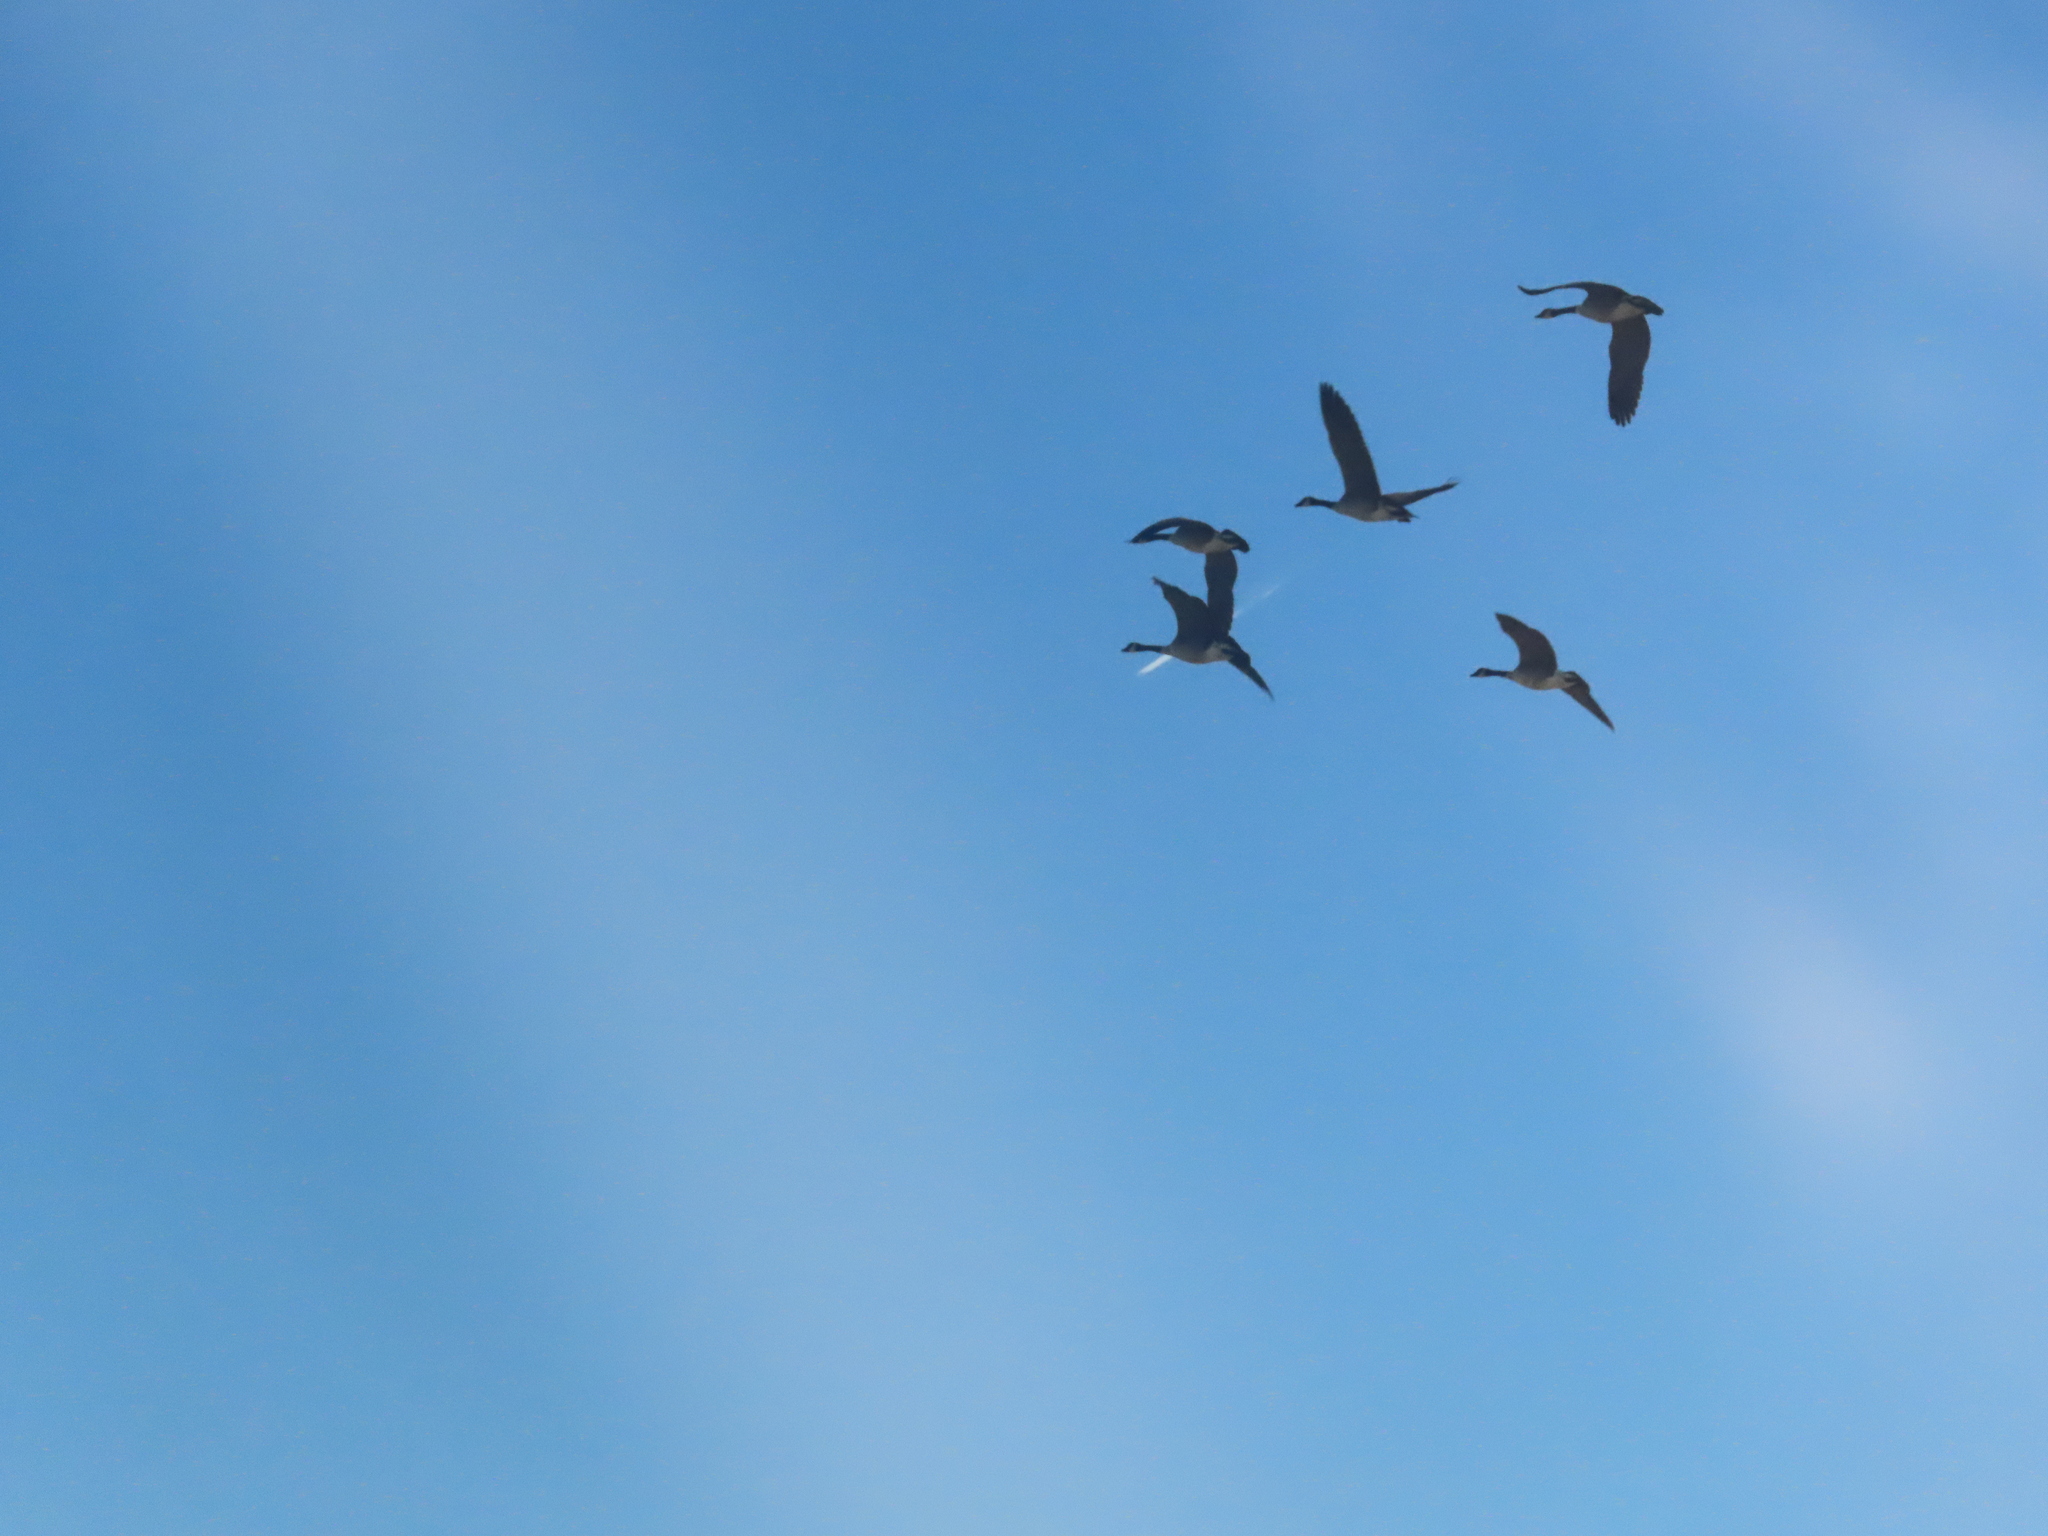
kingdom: Animalia
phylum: Chordata
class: Aves
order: Anseriformes
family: Anatidae
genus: Branta
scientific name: Branta canadensis
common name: Canada goose
